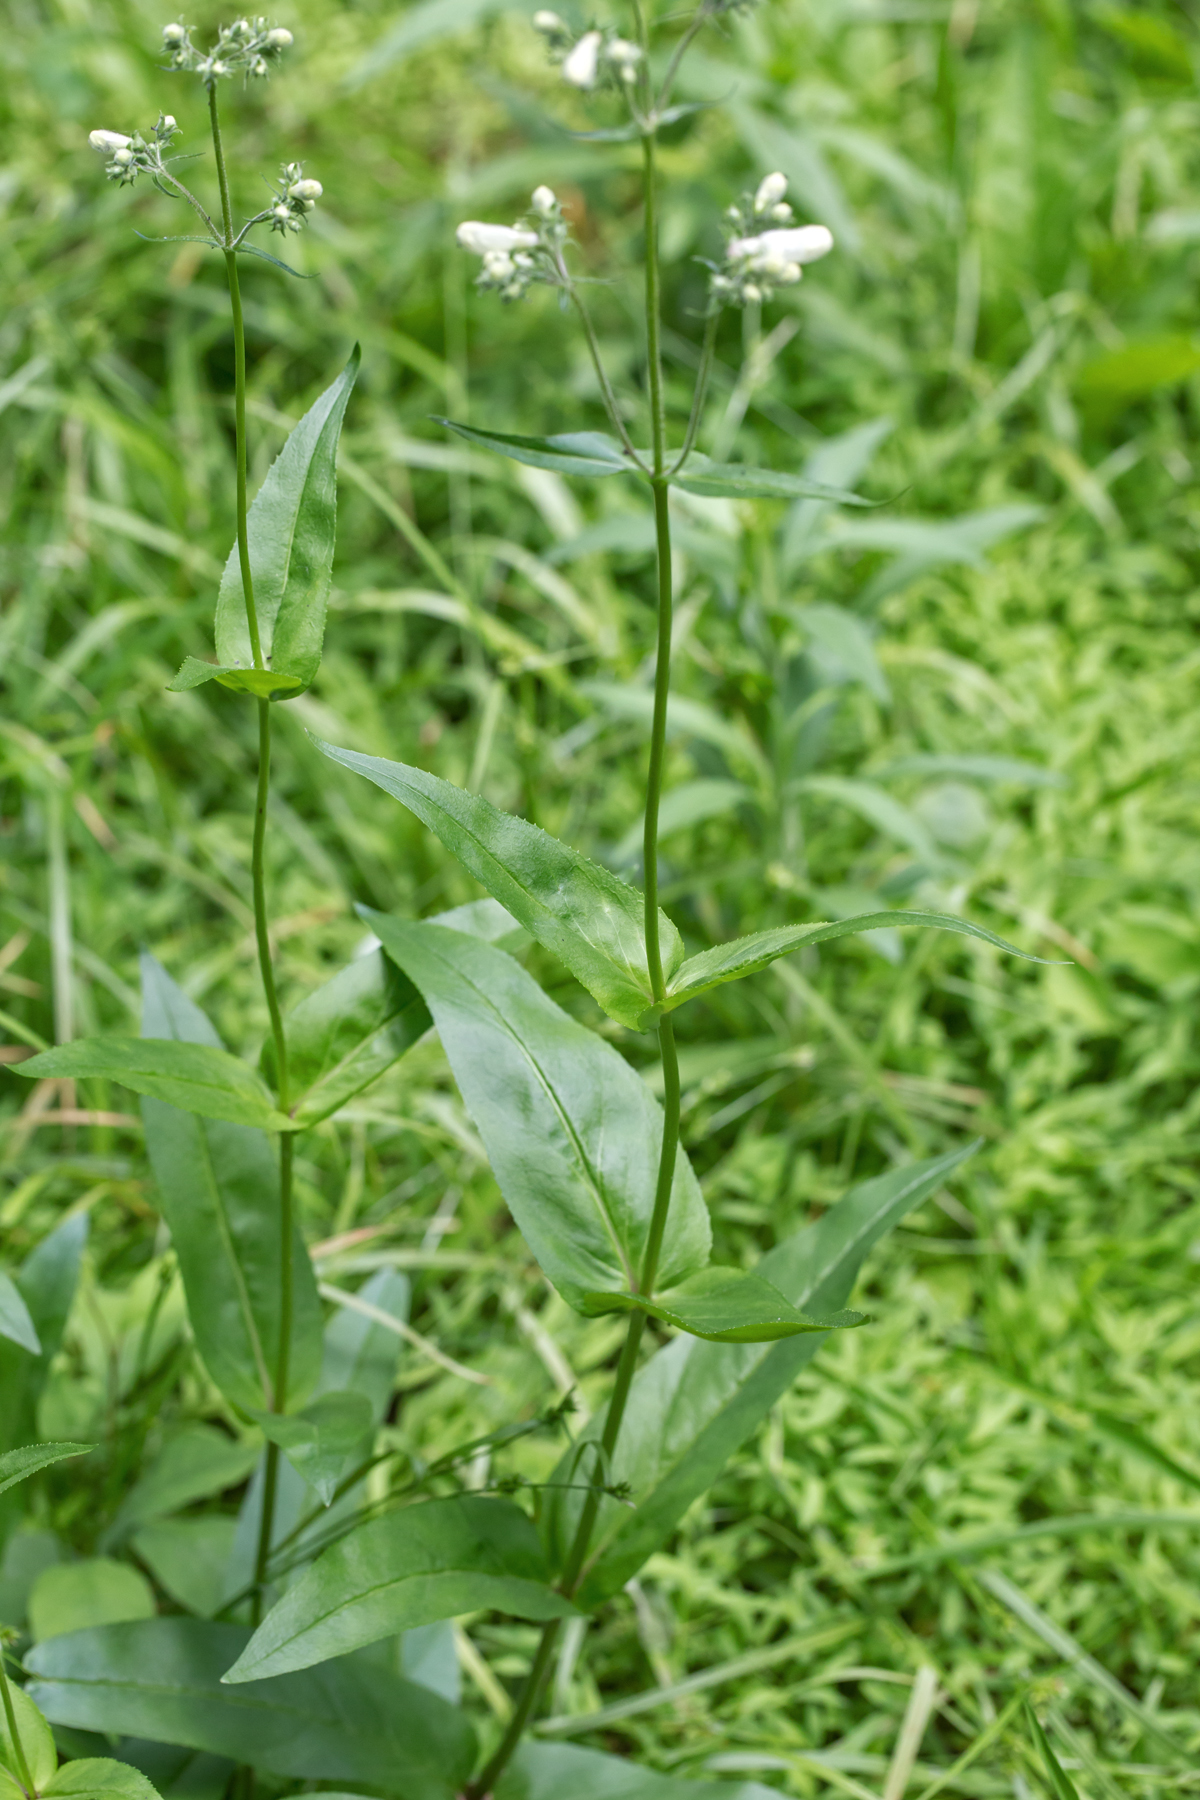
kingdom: Plantae
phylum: Tracheophyta
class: Magnoliopsida
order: Lamiales
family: Plantaginaceae
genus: Penstemon
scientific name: Penstemon digitalis
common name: Foxglove beardtongue
